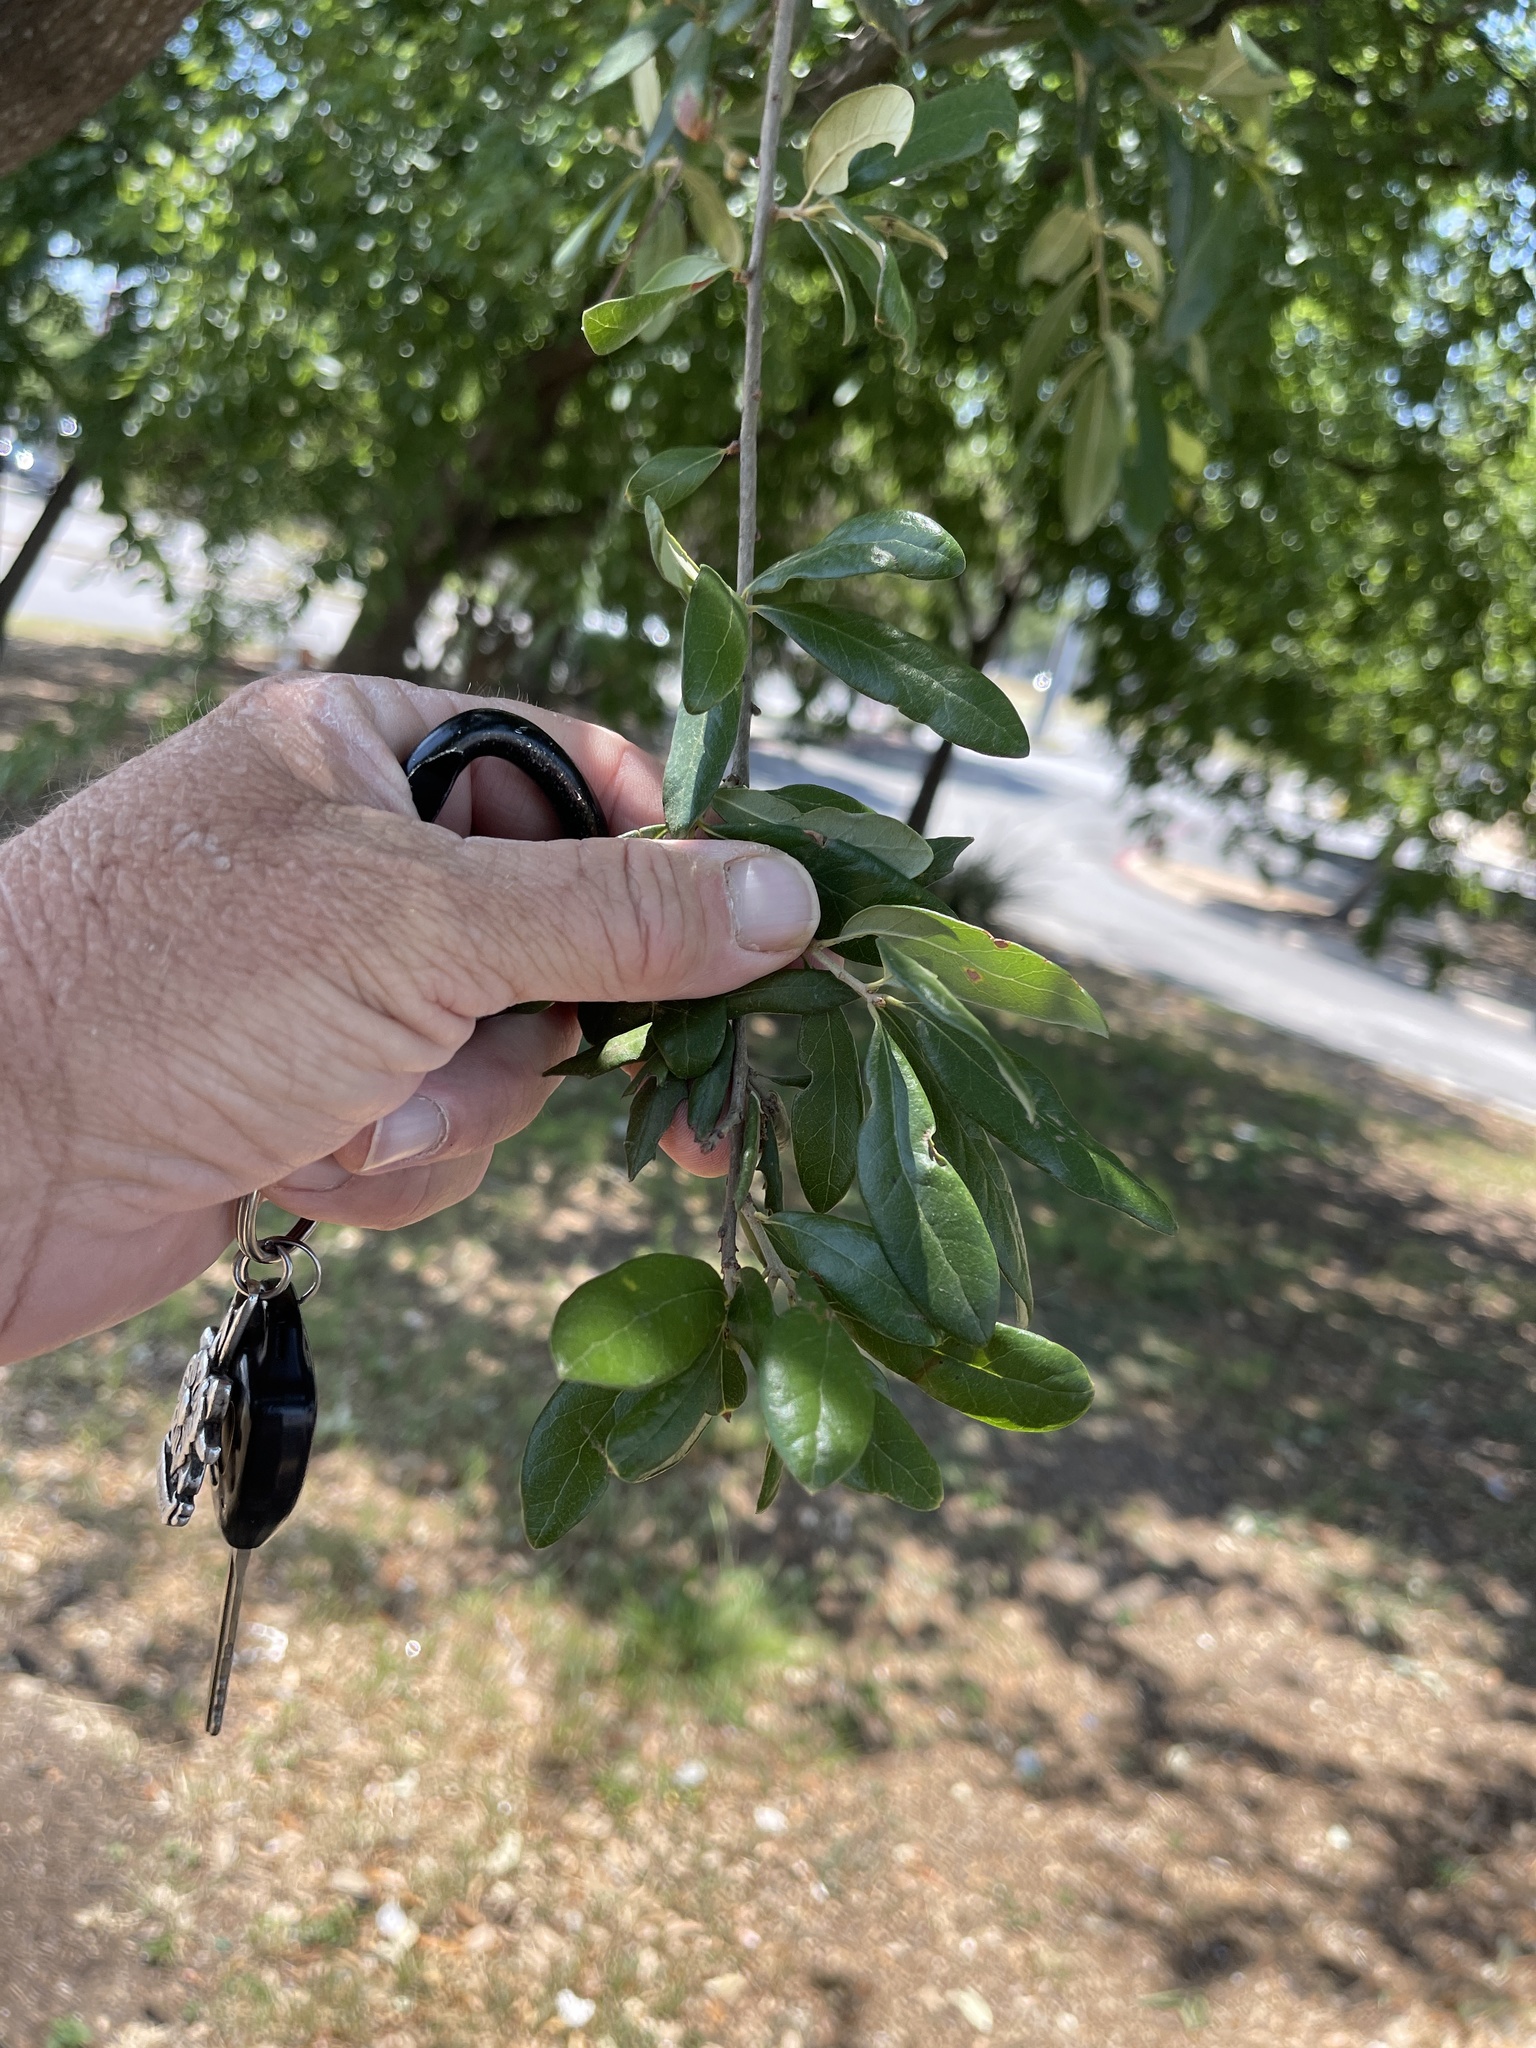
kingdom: Plantae
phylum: Tracheophyta
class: Magnoliopsida
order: Fagales
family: Fagaceae
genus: Quercus
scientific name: Quercus fusiformis
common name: Texas live oak
